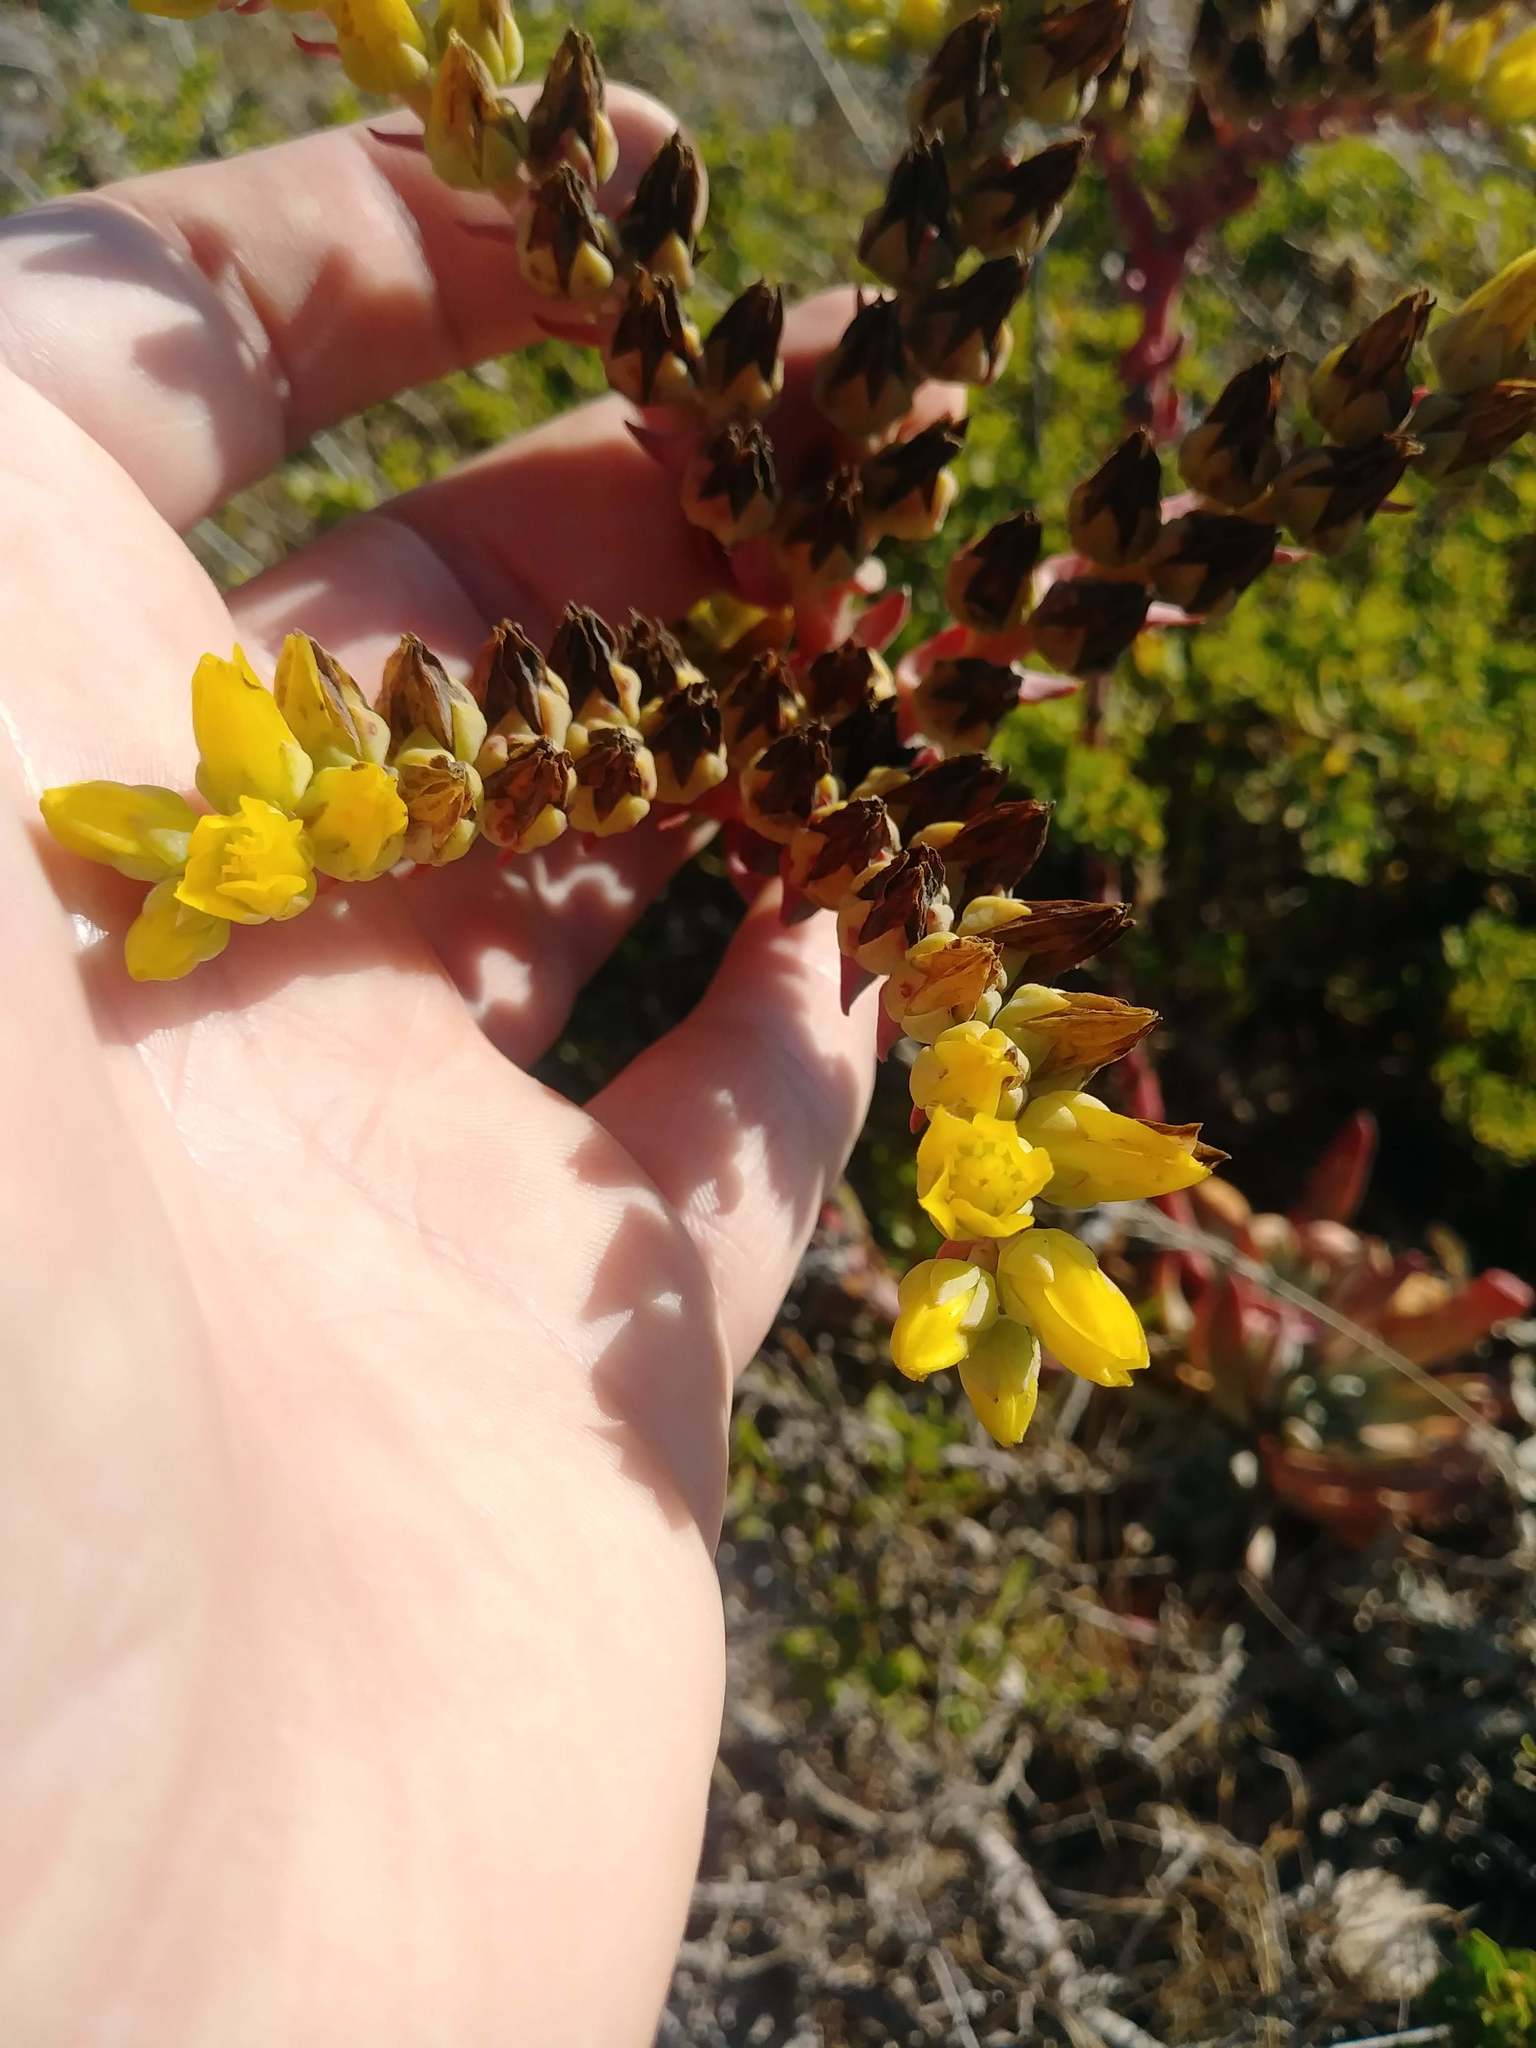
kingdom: Plantae
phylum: Tracheophyta
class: Magnoliopsida
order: Saxifragales
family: Crassulaceae
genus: Dudleya
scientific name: Dudleya caespitosa
